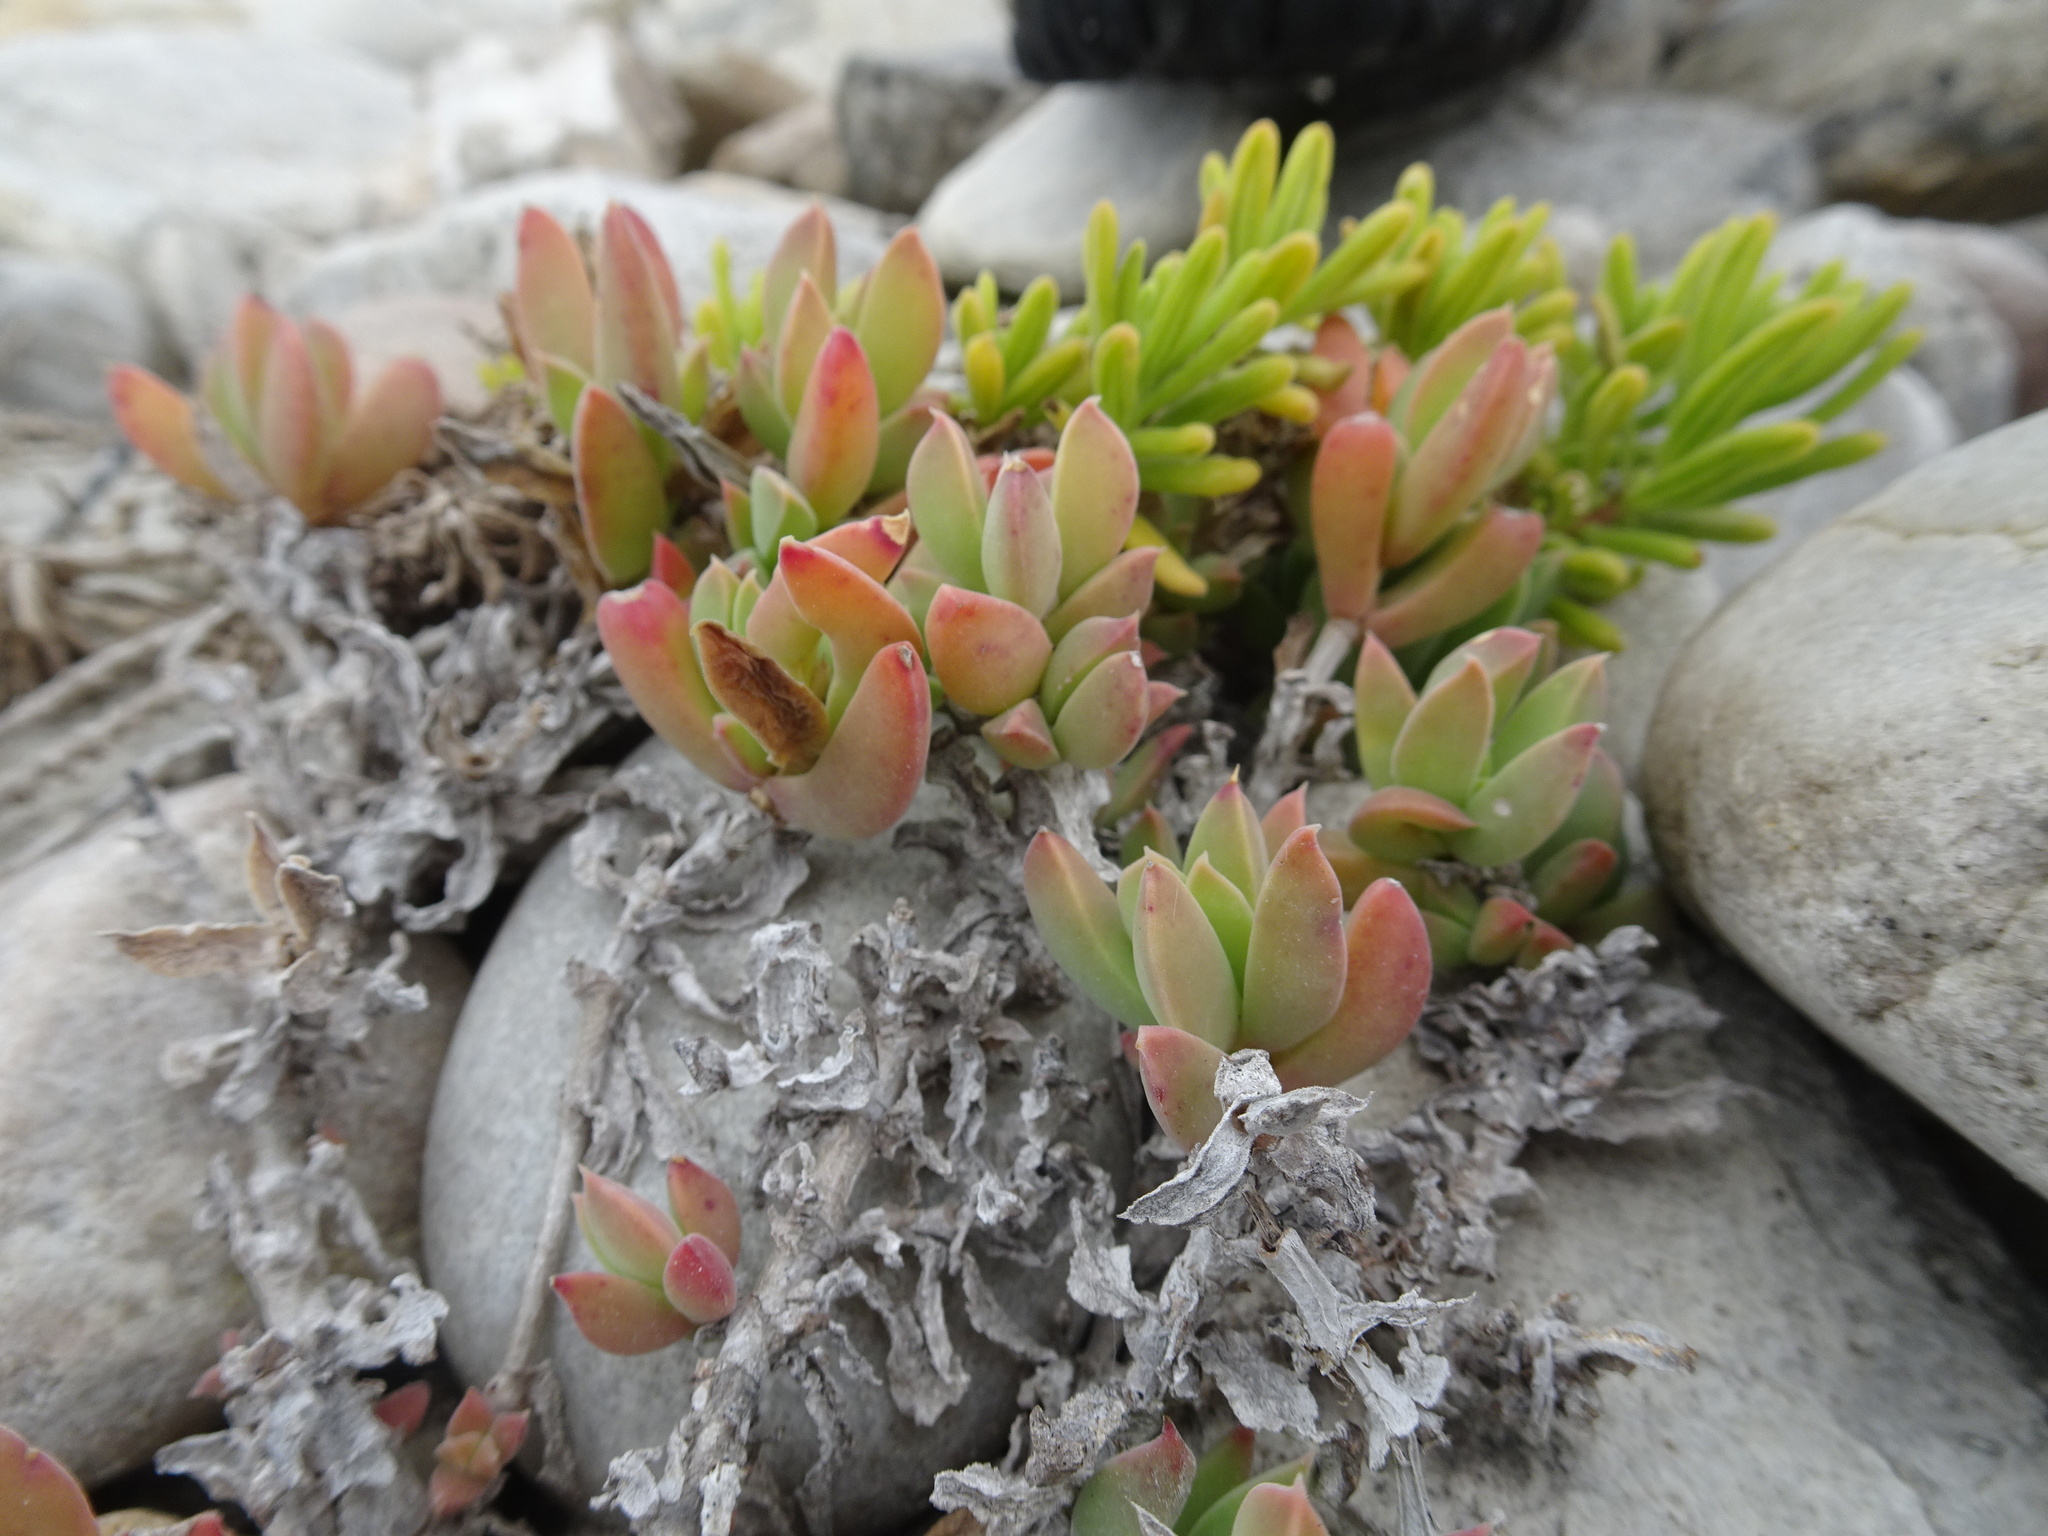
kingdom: Plantae
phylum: Tracheophyta
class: Magnoliopsida
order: Caryophyllales
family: Aizoaceae
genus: Delosperma
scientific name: Delosperma guthriei
